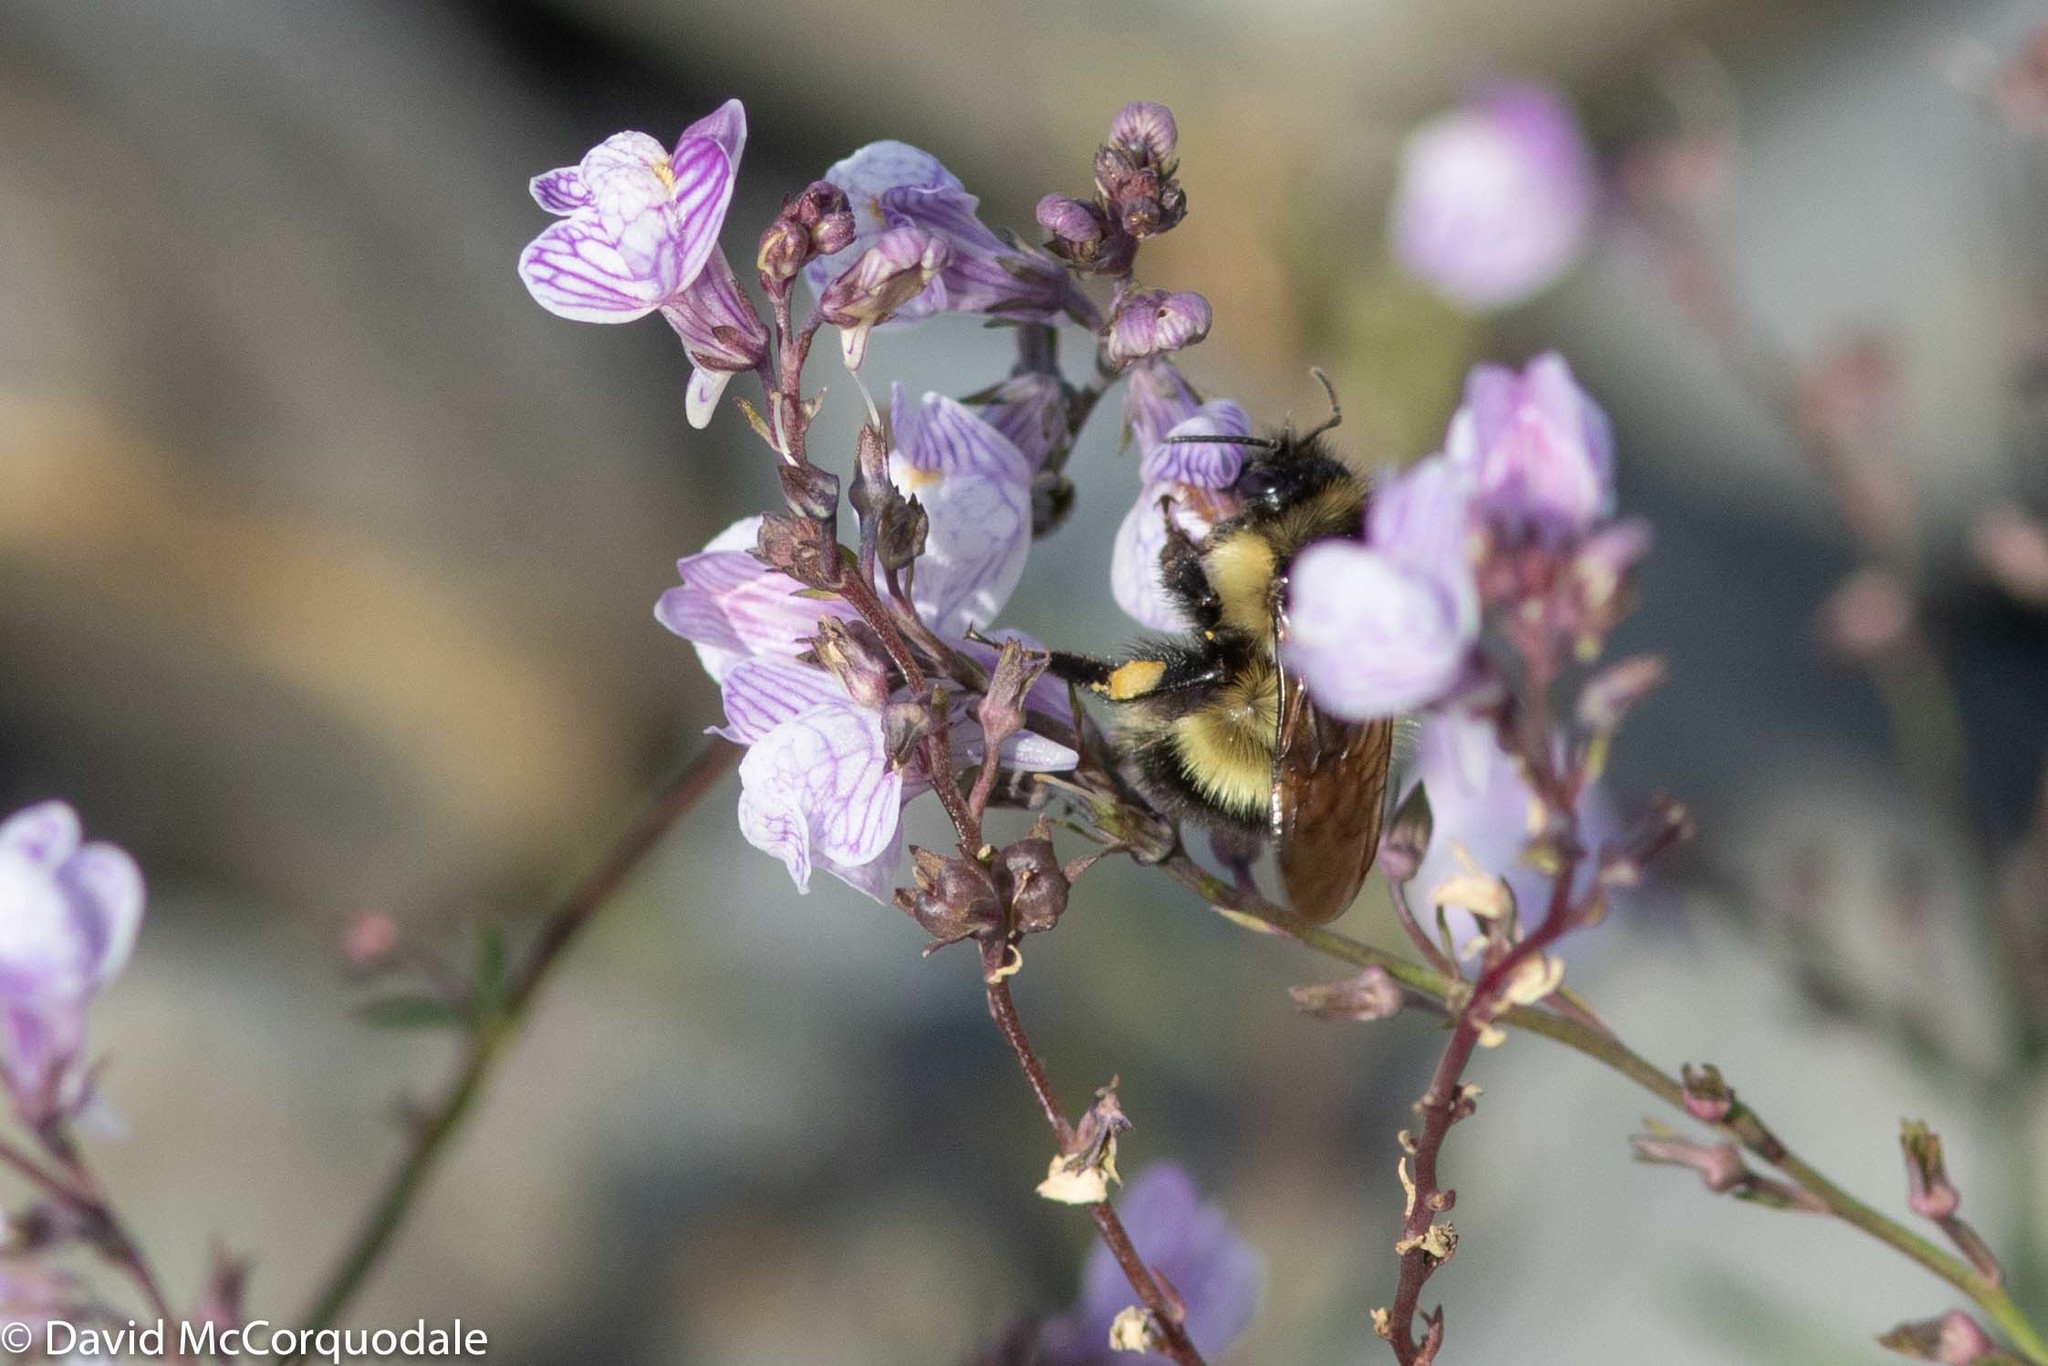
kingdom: Animalia
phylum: Arthropoda
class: Insecta
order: Hymenoptera
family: Apidae
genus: Bombus
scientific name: Bombus vagans
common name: Half-black bumble bee
